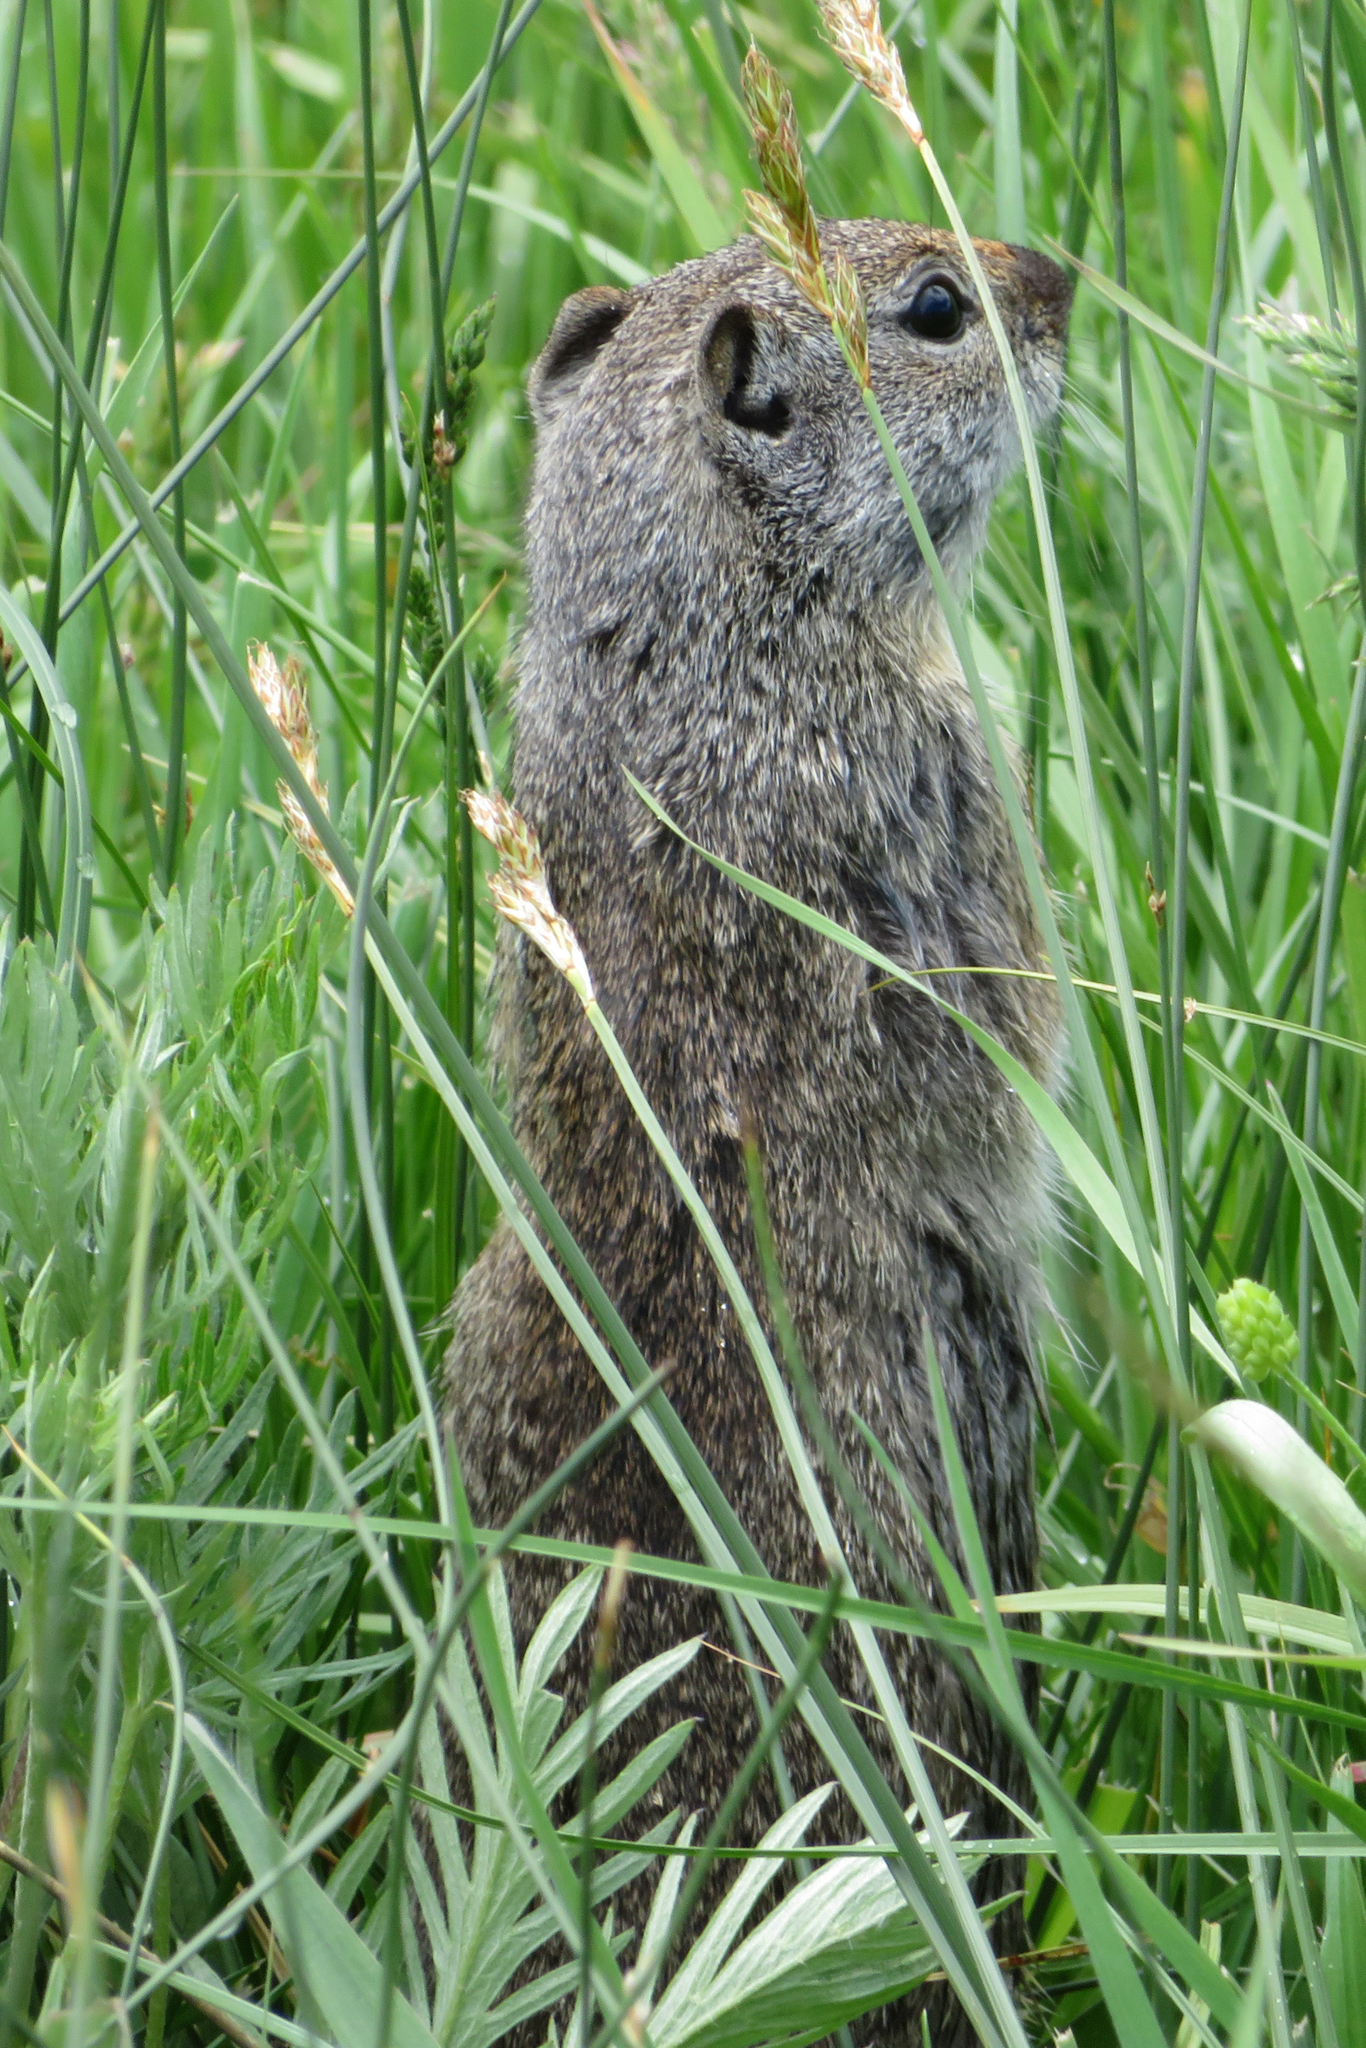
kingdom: Animalia
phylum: Chordata
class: Mammalia
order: Rodentia
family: Sciuridae
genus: Urocitellus
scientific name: Urocitellus armatus
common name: Uinta ground squirrel
